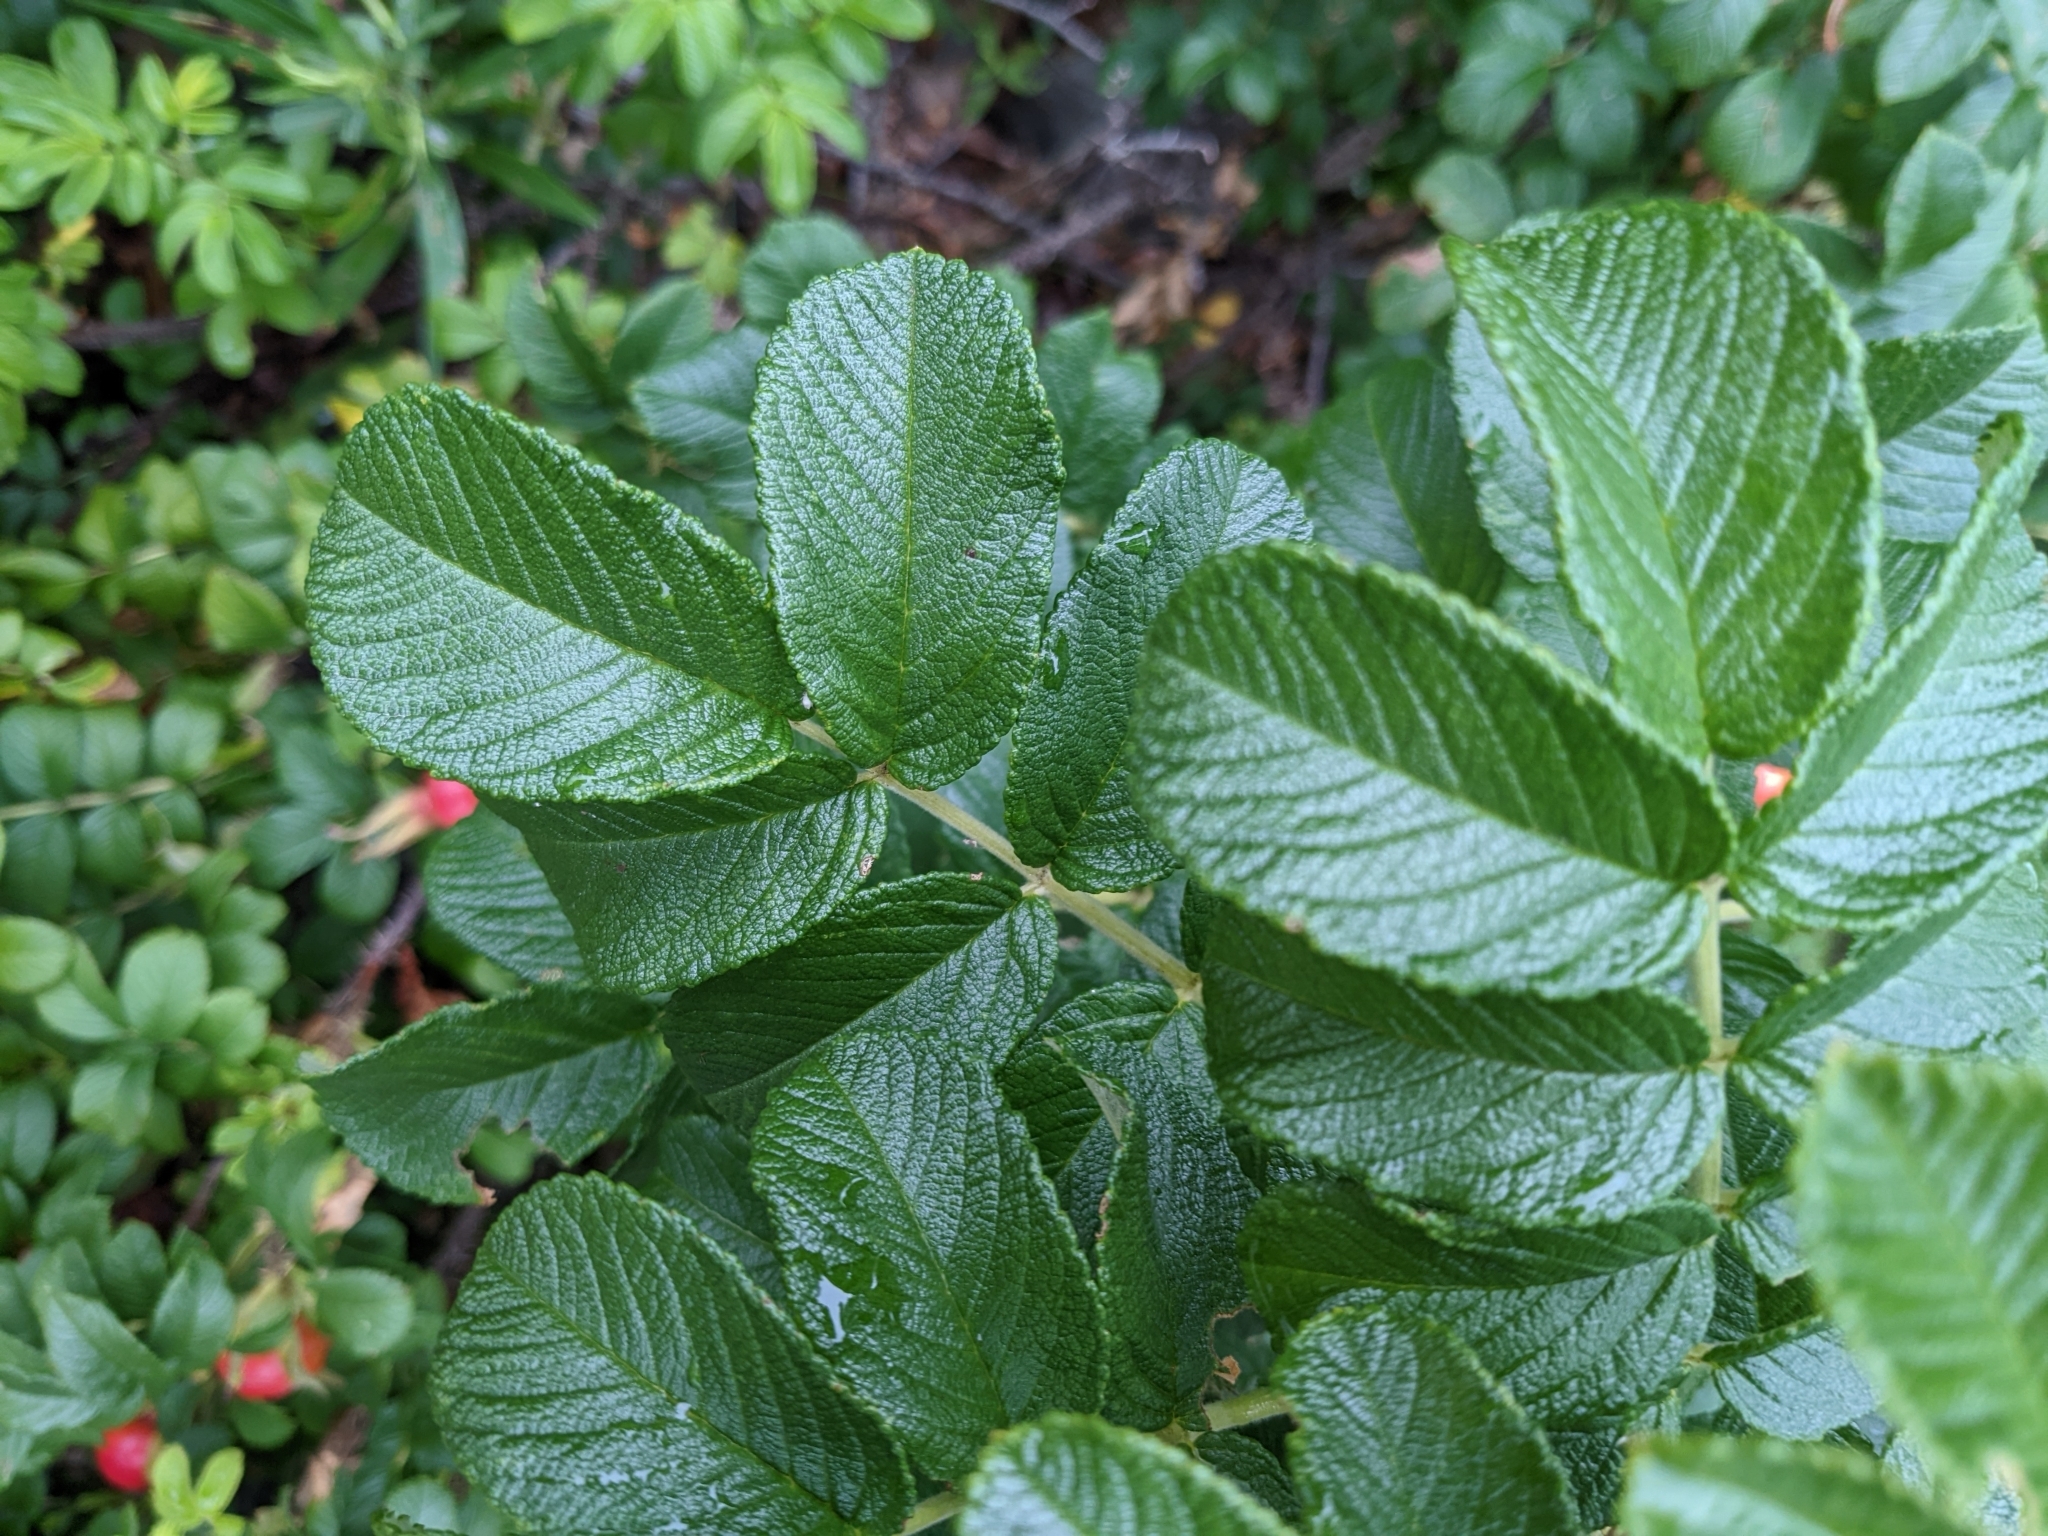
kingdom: Plantae
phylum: Tracheophyta
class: Magnoliopsida
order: Rosales
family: Rosaceae
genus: Rosa
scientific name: Rosa rugosa
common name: Japanese rose
